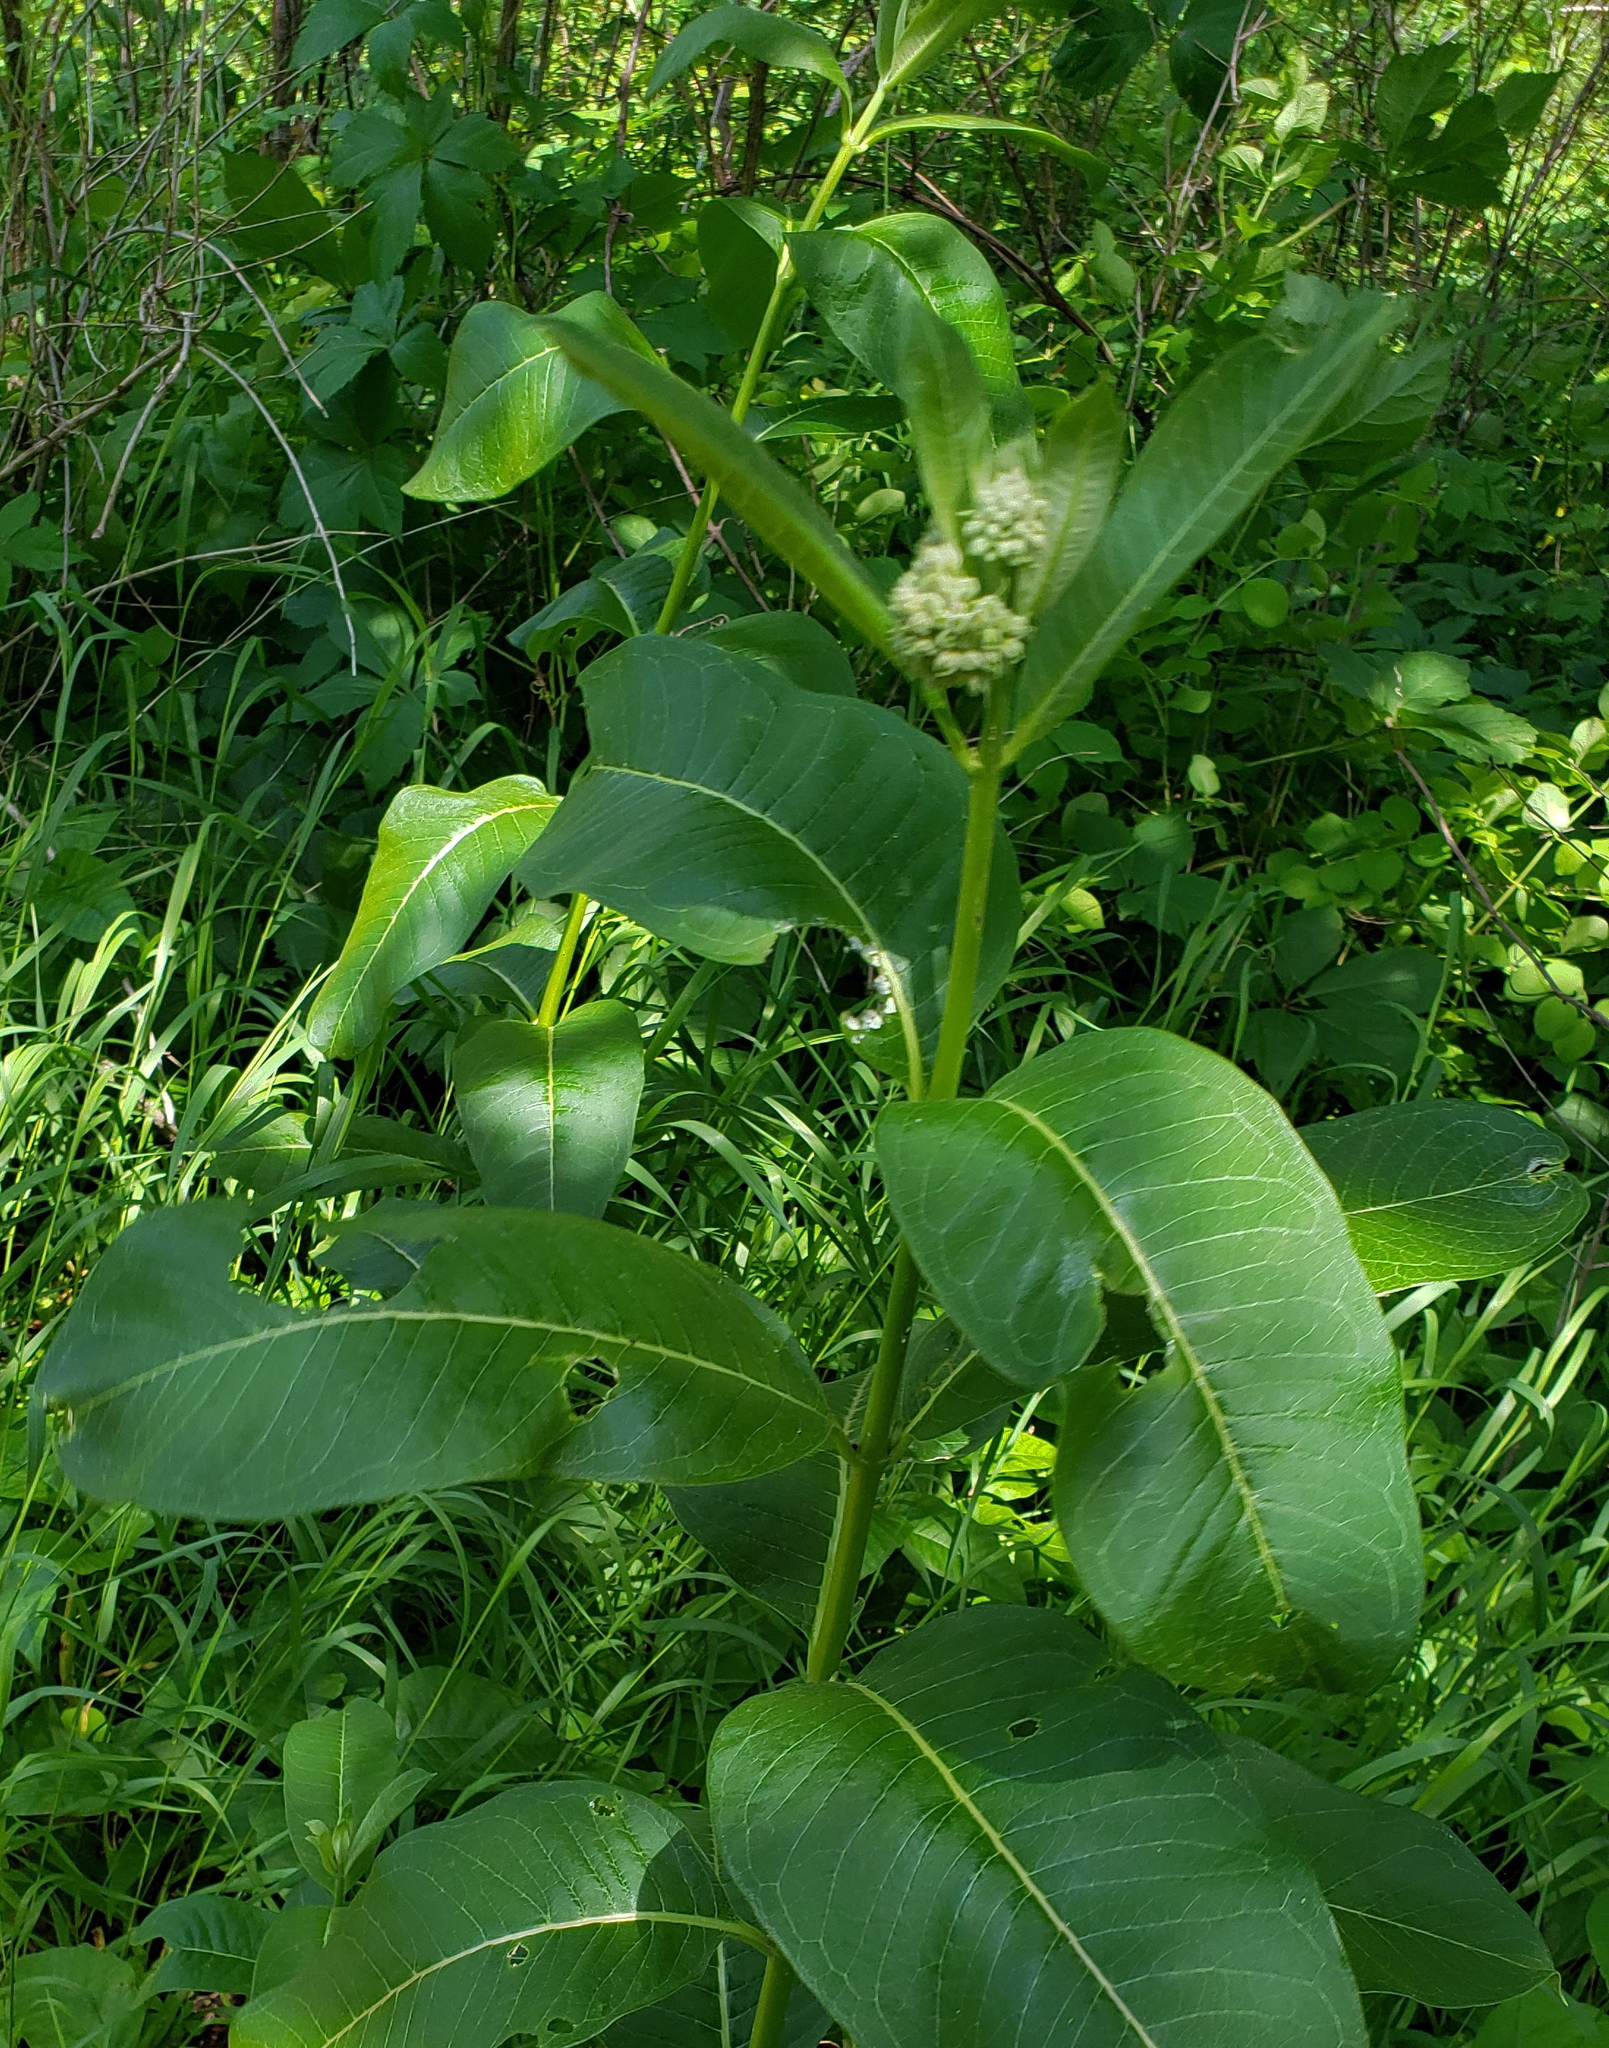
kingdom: Plantae
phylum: Tracheophyta
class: Magnoliopsida
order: Gentianales
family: Apocynaceae
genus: Asclepias
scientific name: Asclepias syriaca
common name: Common milkweed
